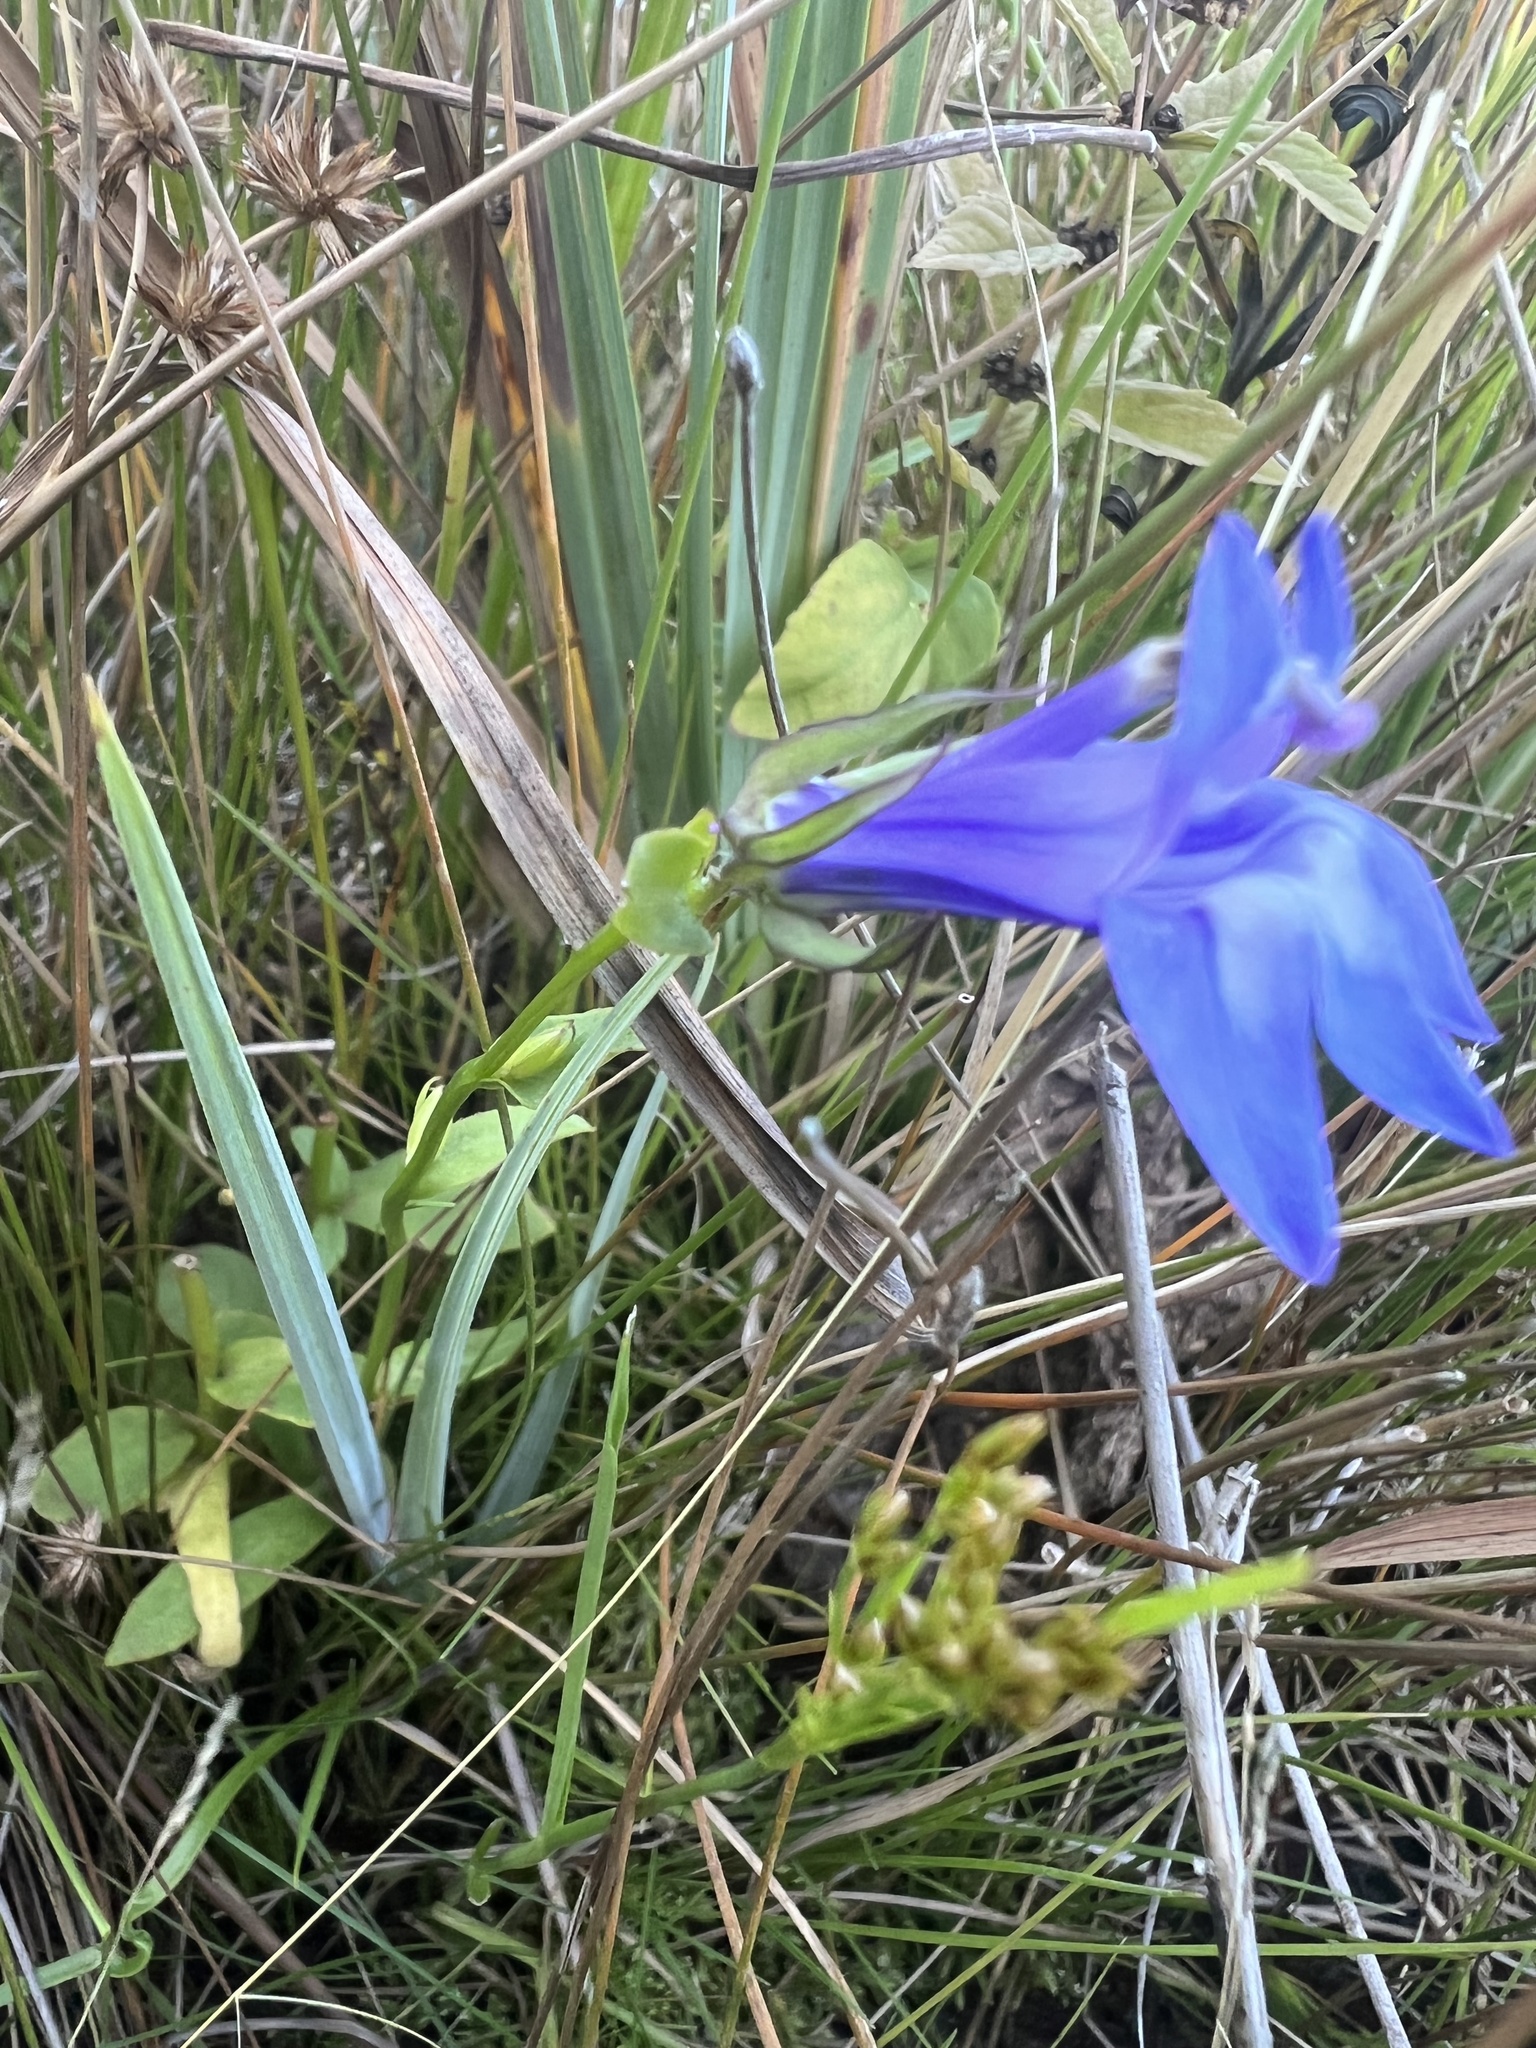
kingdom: Plantae
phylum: Tracheophyta
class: Magnoliopsida
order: Asterales
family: Campanulaceae
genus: Lobelia
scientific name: Lobelia siphilitica
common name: Great lobelia
